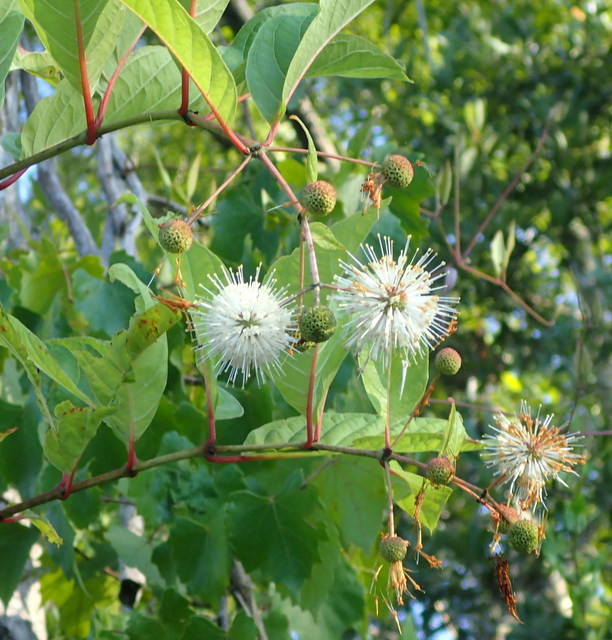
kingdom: Plantae
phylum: Tracheophyta
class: Magnoliopsida
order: Gentianales
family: Rubiaceae
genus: Cephalanthus
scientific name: Cephalanthus occidentalis
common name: Button-willow
